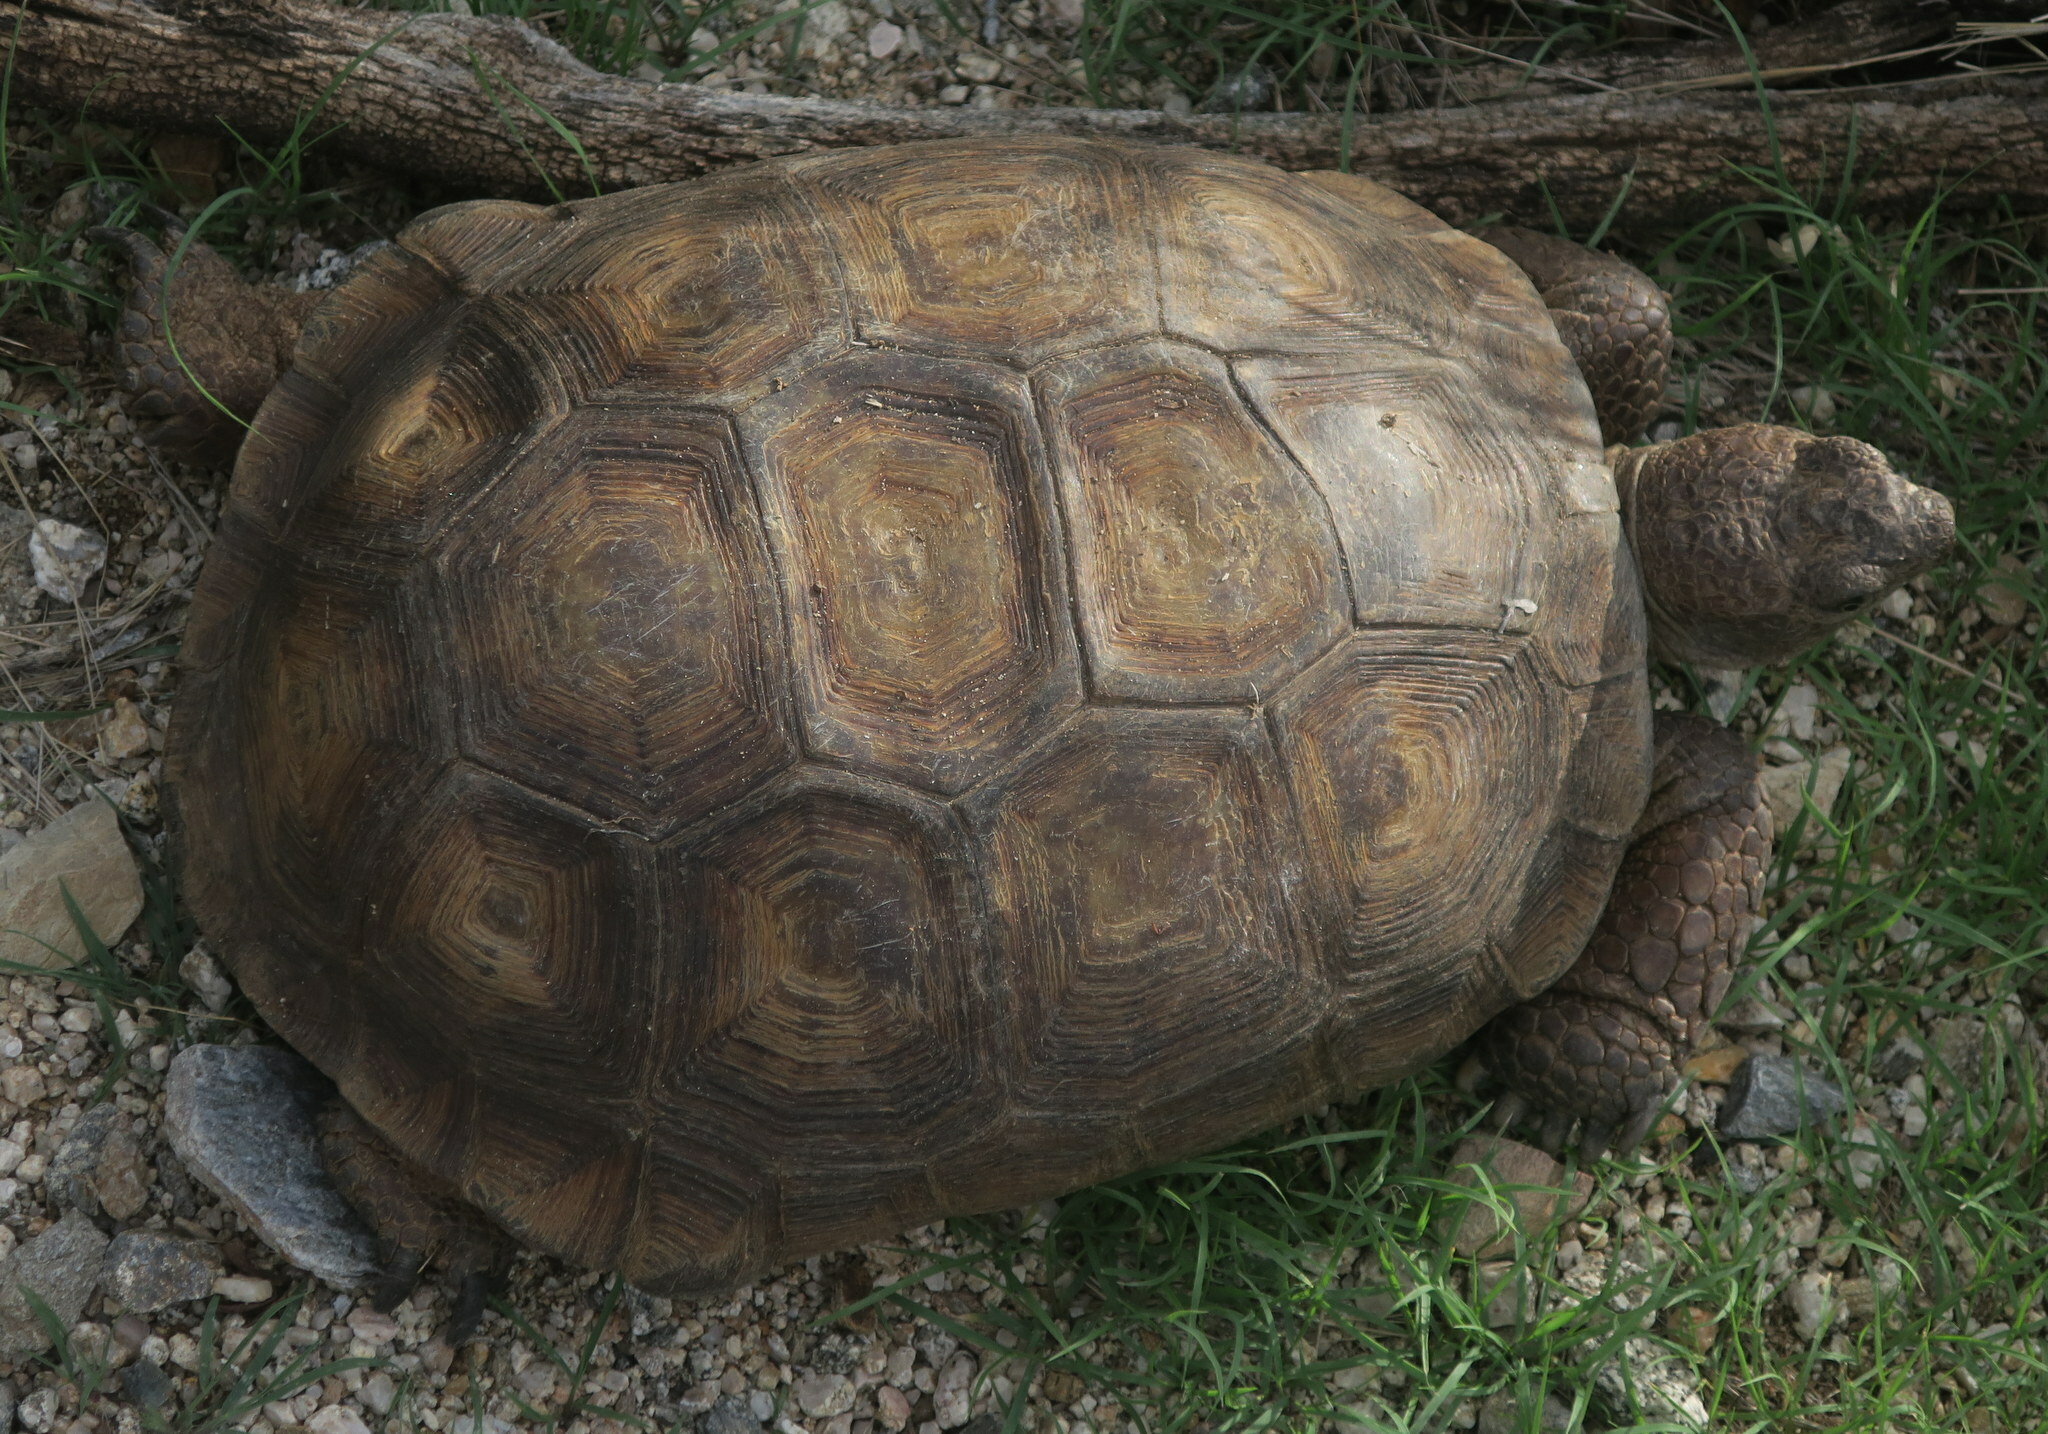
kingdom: Animalia
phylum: Chordata
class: Testudines
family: Testudinidae
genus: Gopherus
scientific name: Gopherus morafkai
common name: Sonoran desert tortoise
